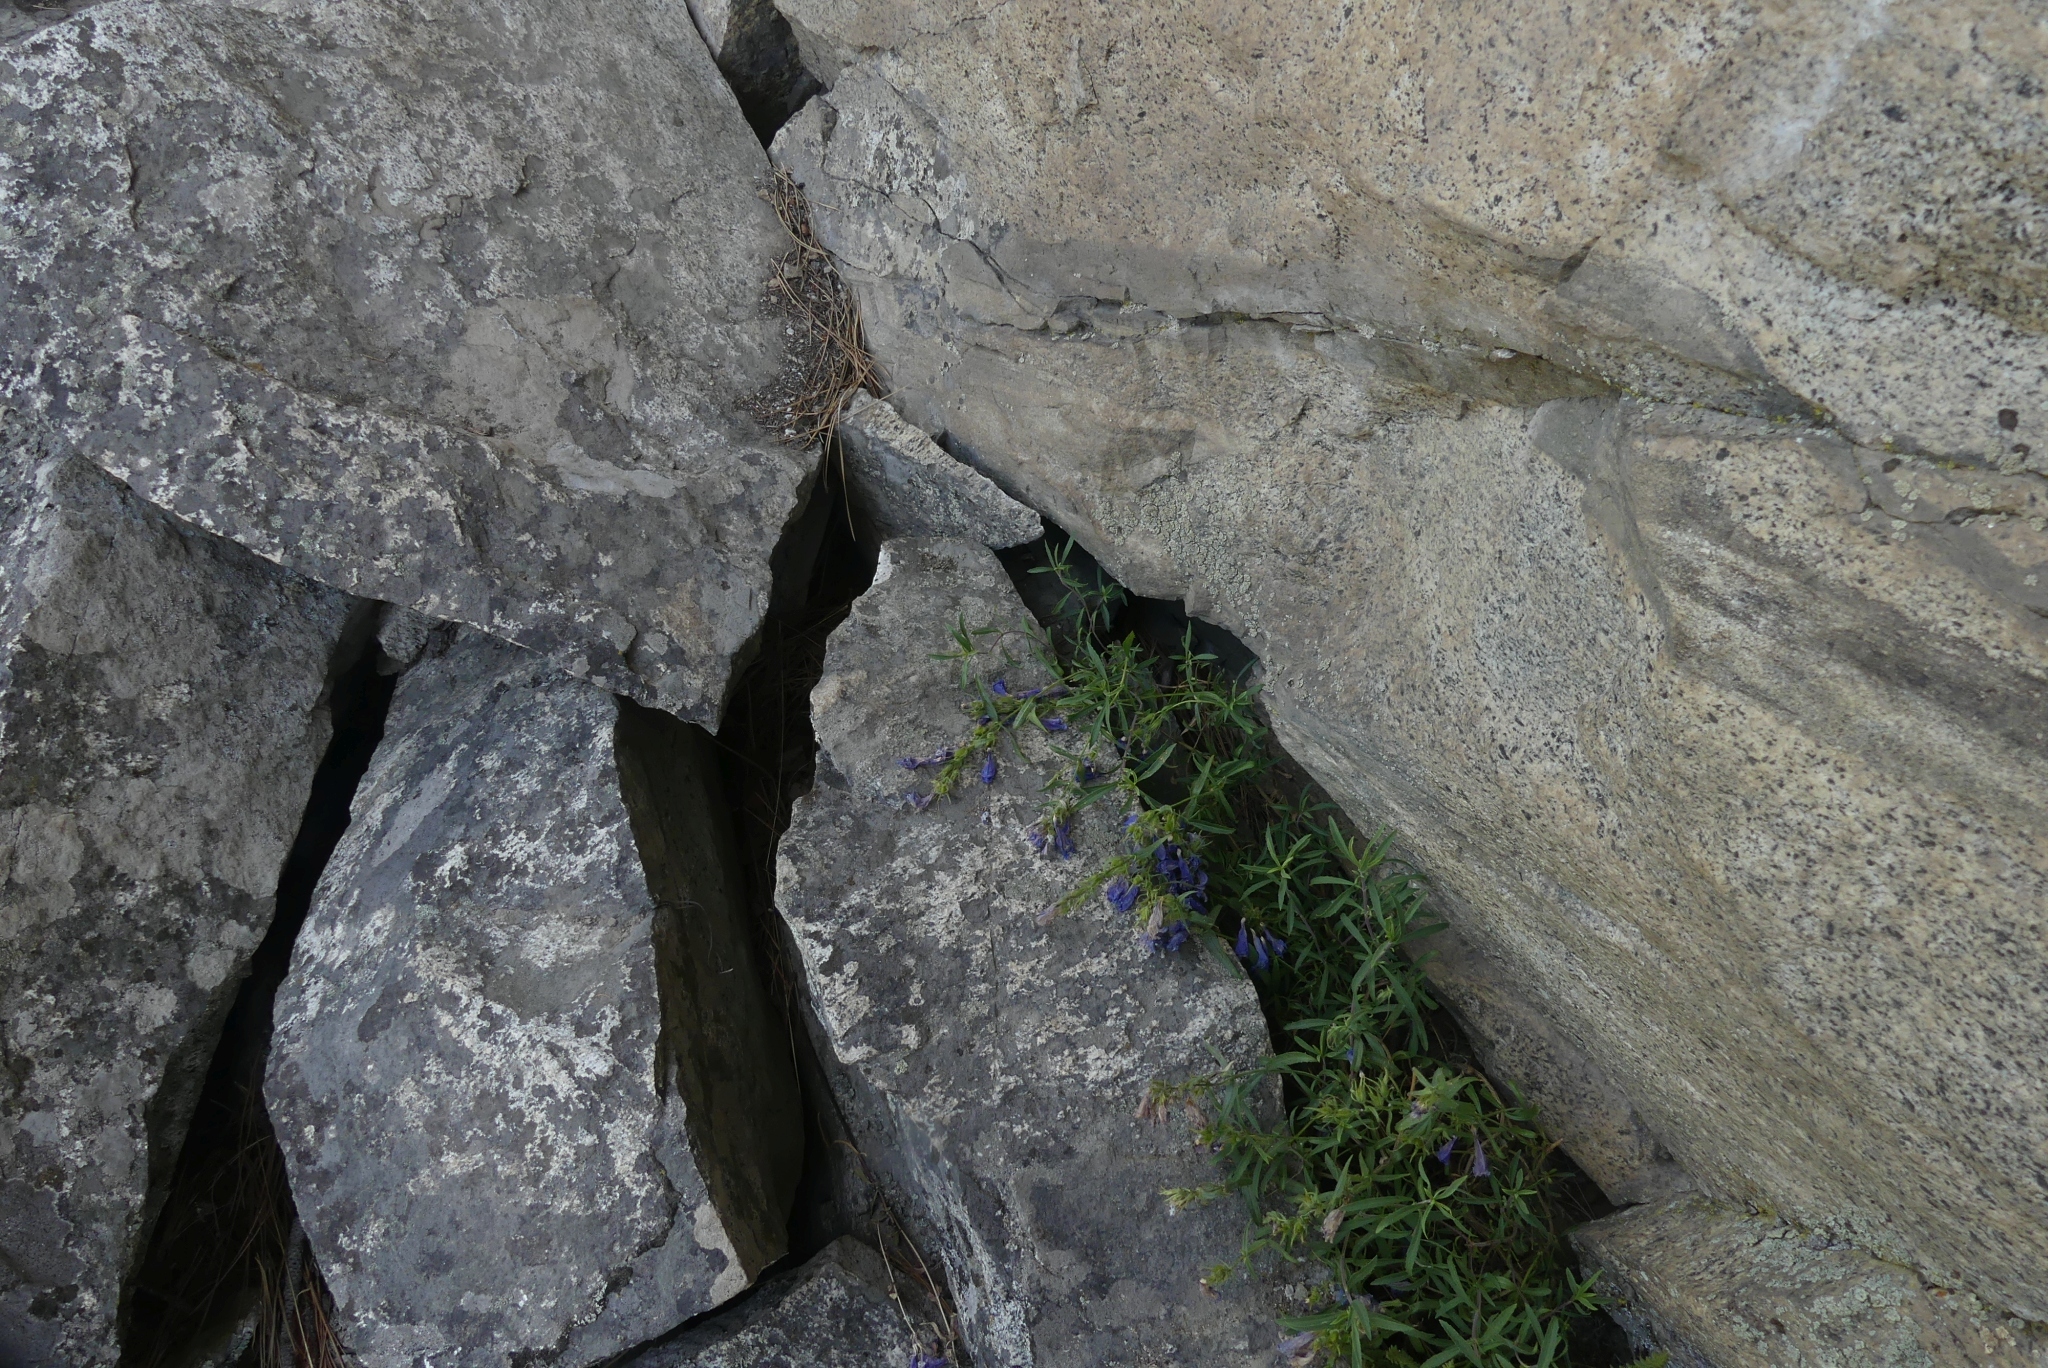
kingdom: Plantae
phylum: Tracheophyta
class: Magnoliopsida
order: Lamiales
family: Plantaginaceae
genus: Penstemon
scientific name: Penstemon fruticosus
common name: Bush penstemon
